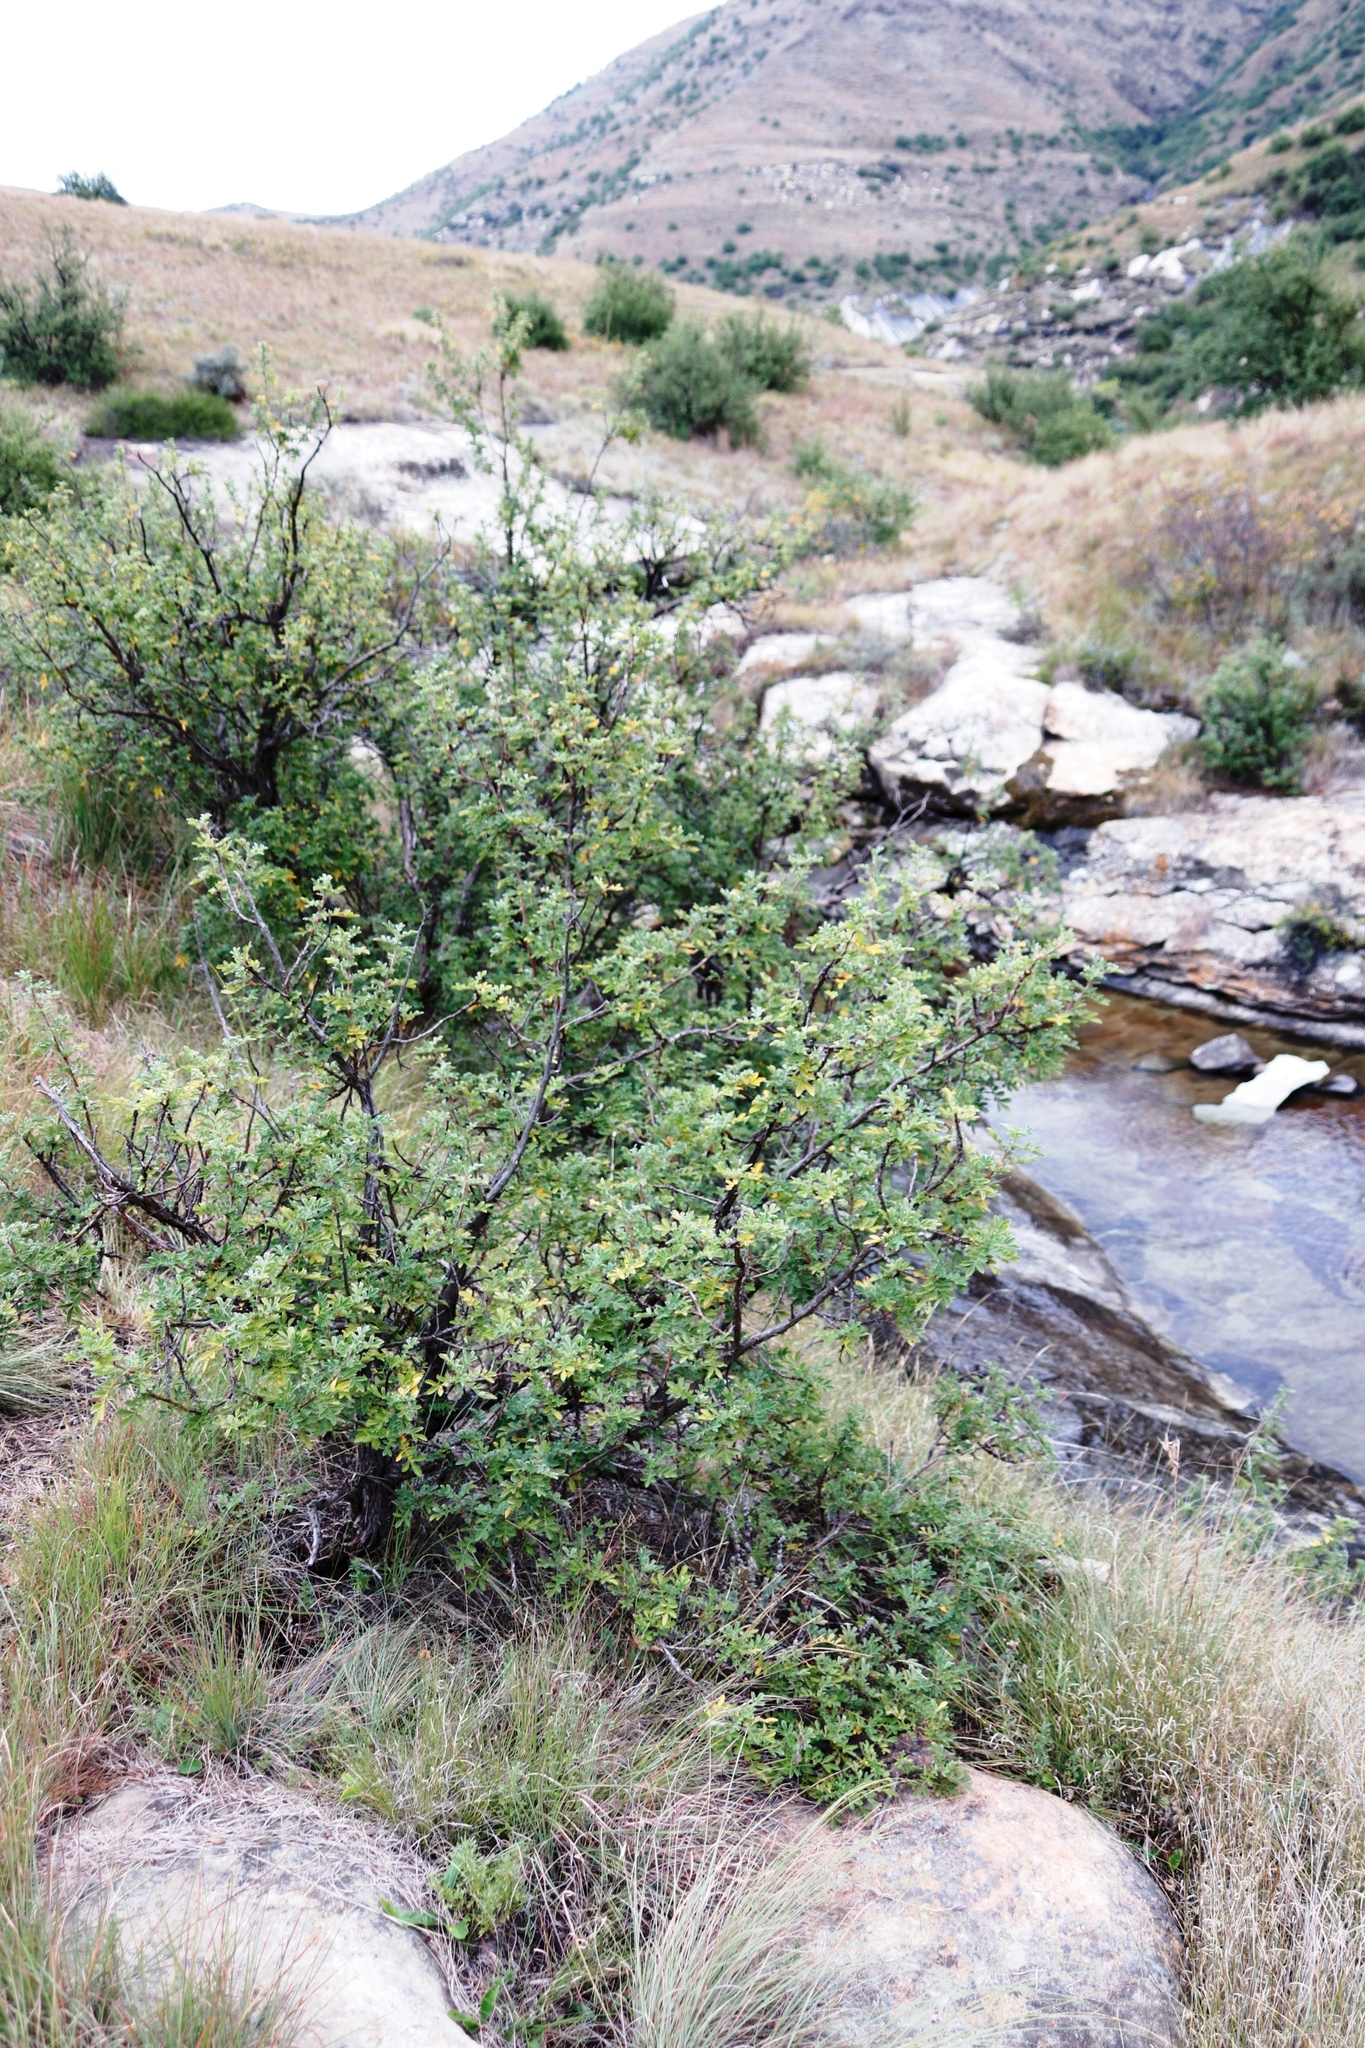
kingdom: Plantae
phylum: Tracheophyta
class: Magnoliopsida
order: Rosales
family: Rosaceae
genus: Leucosidea
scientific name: Leucosidea sericea
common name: Oldwood
